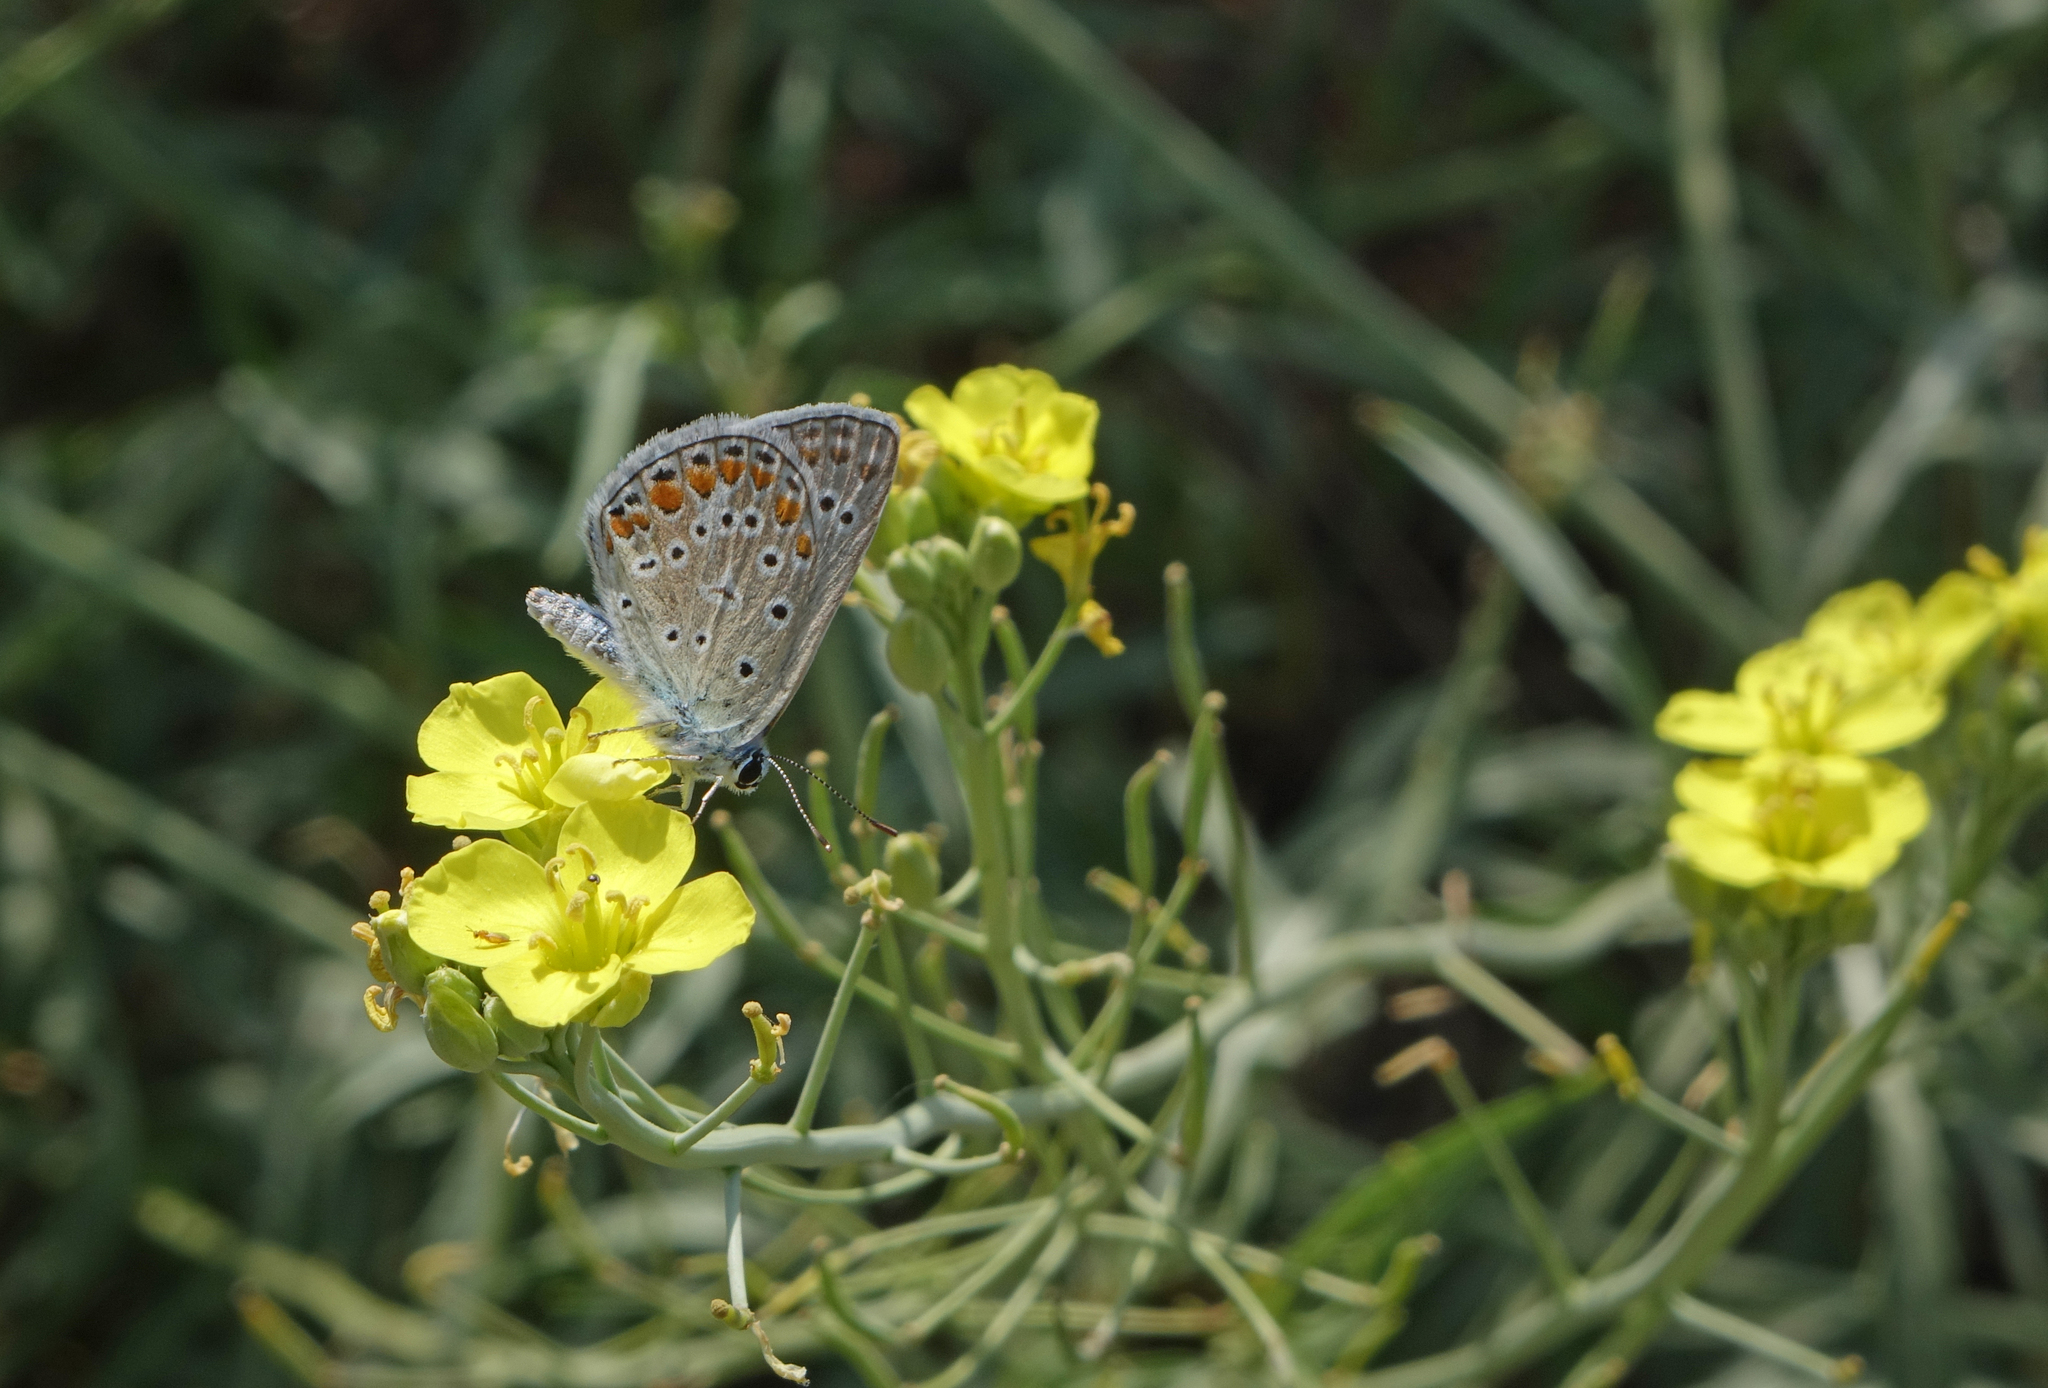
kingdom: Animalia
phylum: Arthropoda
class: Insecta
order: Lepidoptera
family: Lycaenidae
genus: Polyommatus
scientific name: Polyommatus icarus
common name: Common blue
